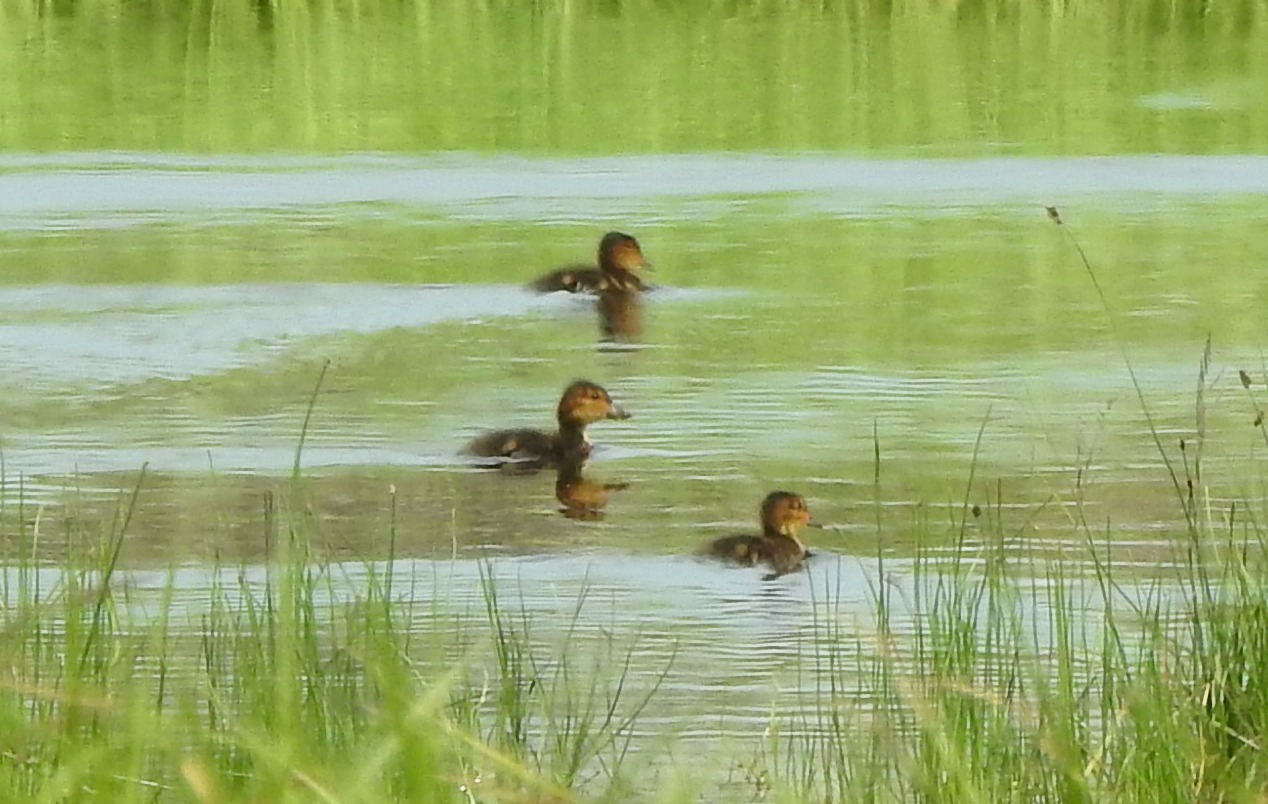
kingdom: Animalia
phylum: Chordata
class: Aves
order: Anseriformes
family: Anatidae
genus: Mareca
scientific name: Mareca falcata
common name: Falcated duck
